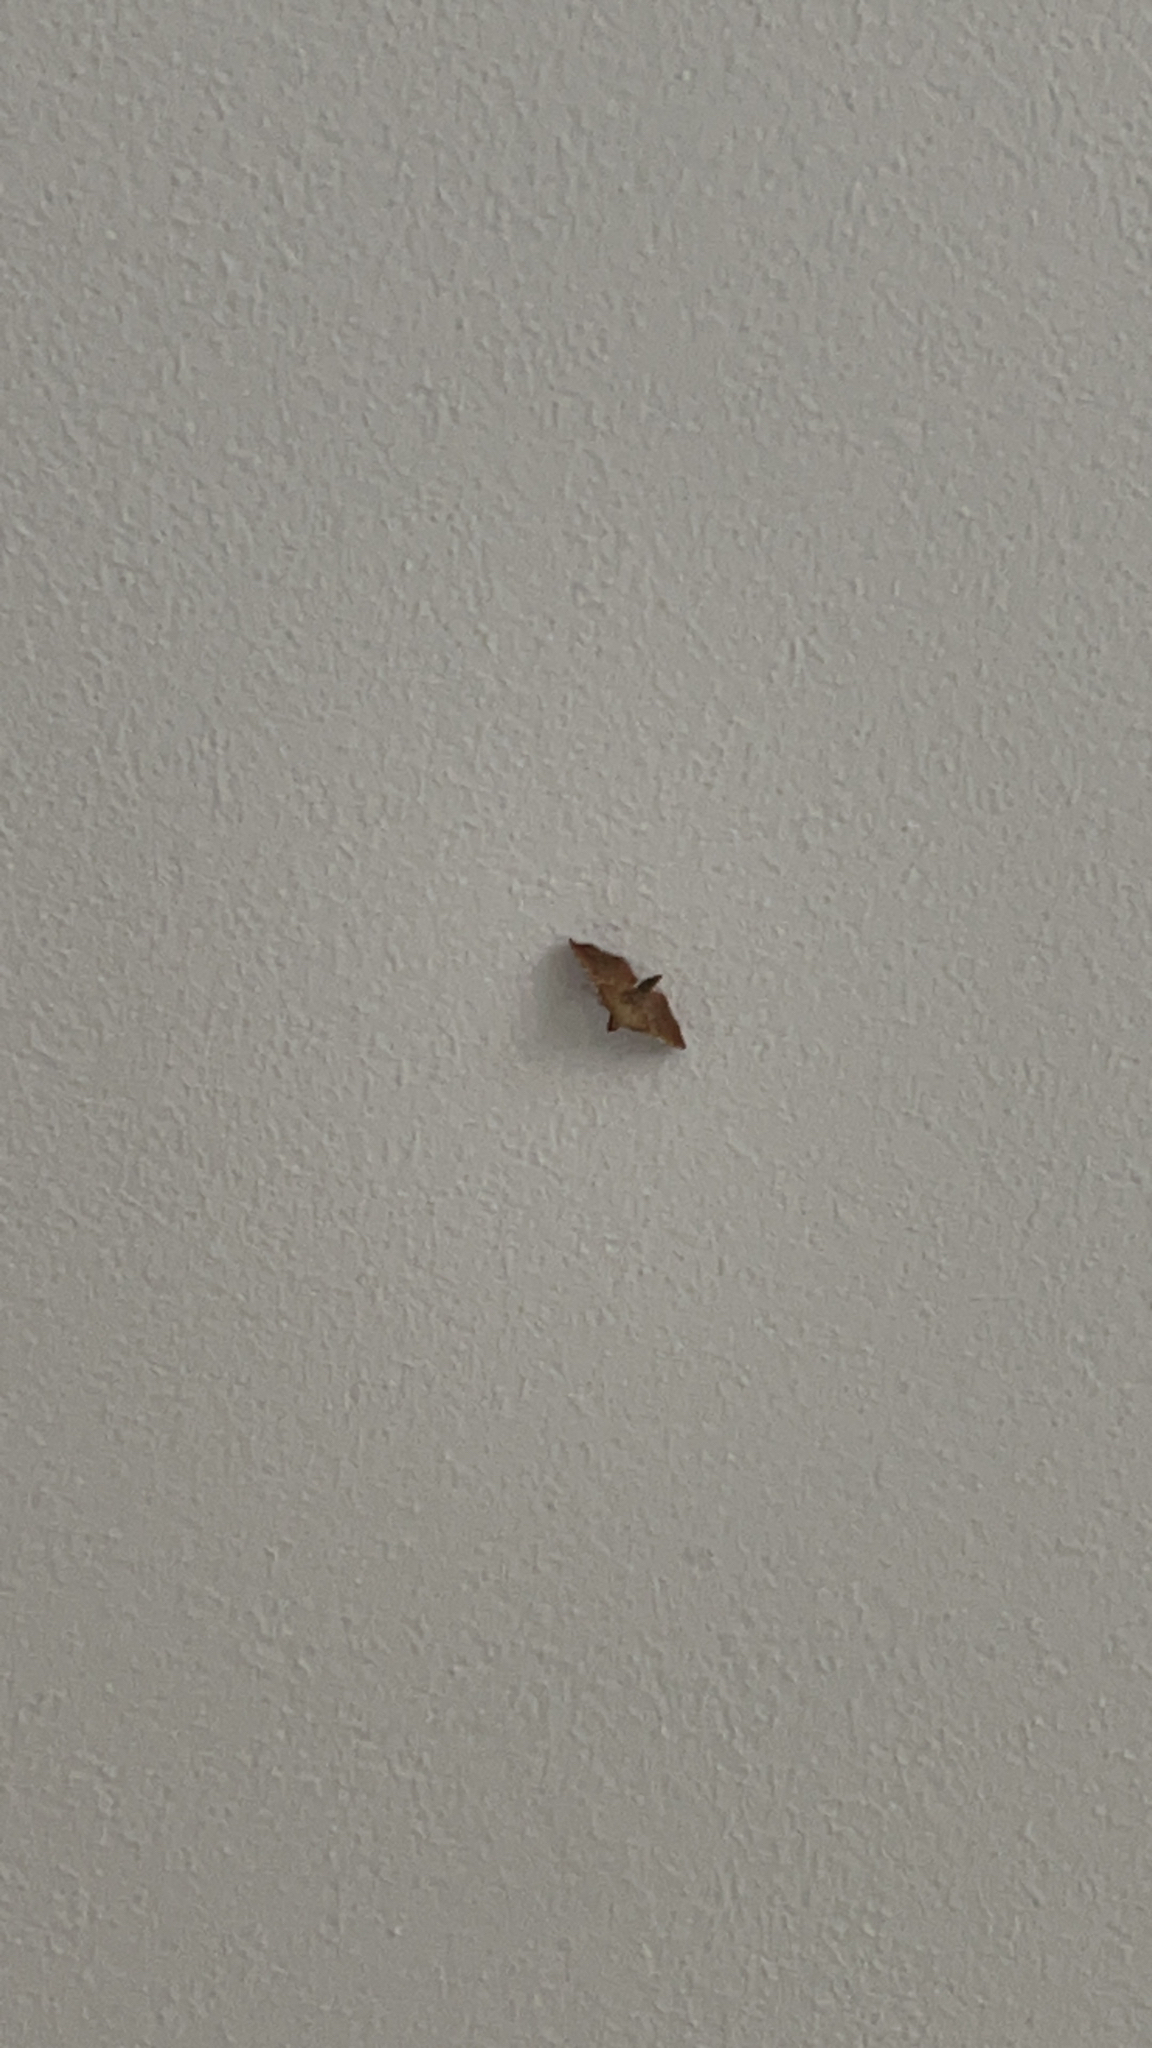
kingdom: Animalia
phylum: Arthropoda
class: Insecta
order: Lepidoptera
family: Pyralidae
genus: Endotricha
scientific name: Endotricha flammealis
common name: Rosy tabby
